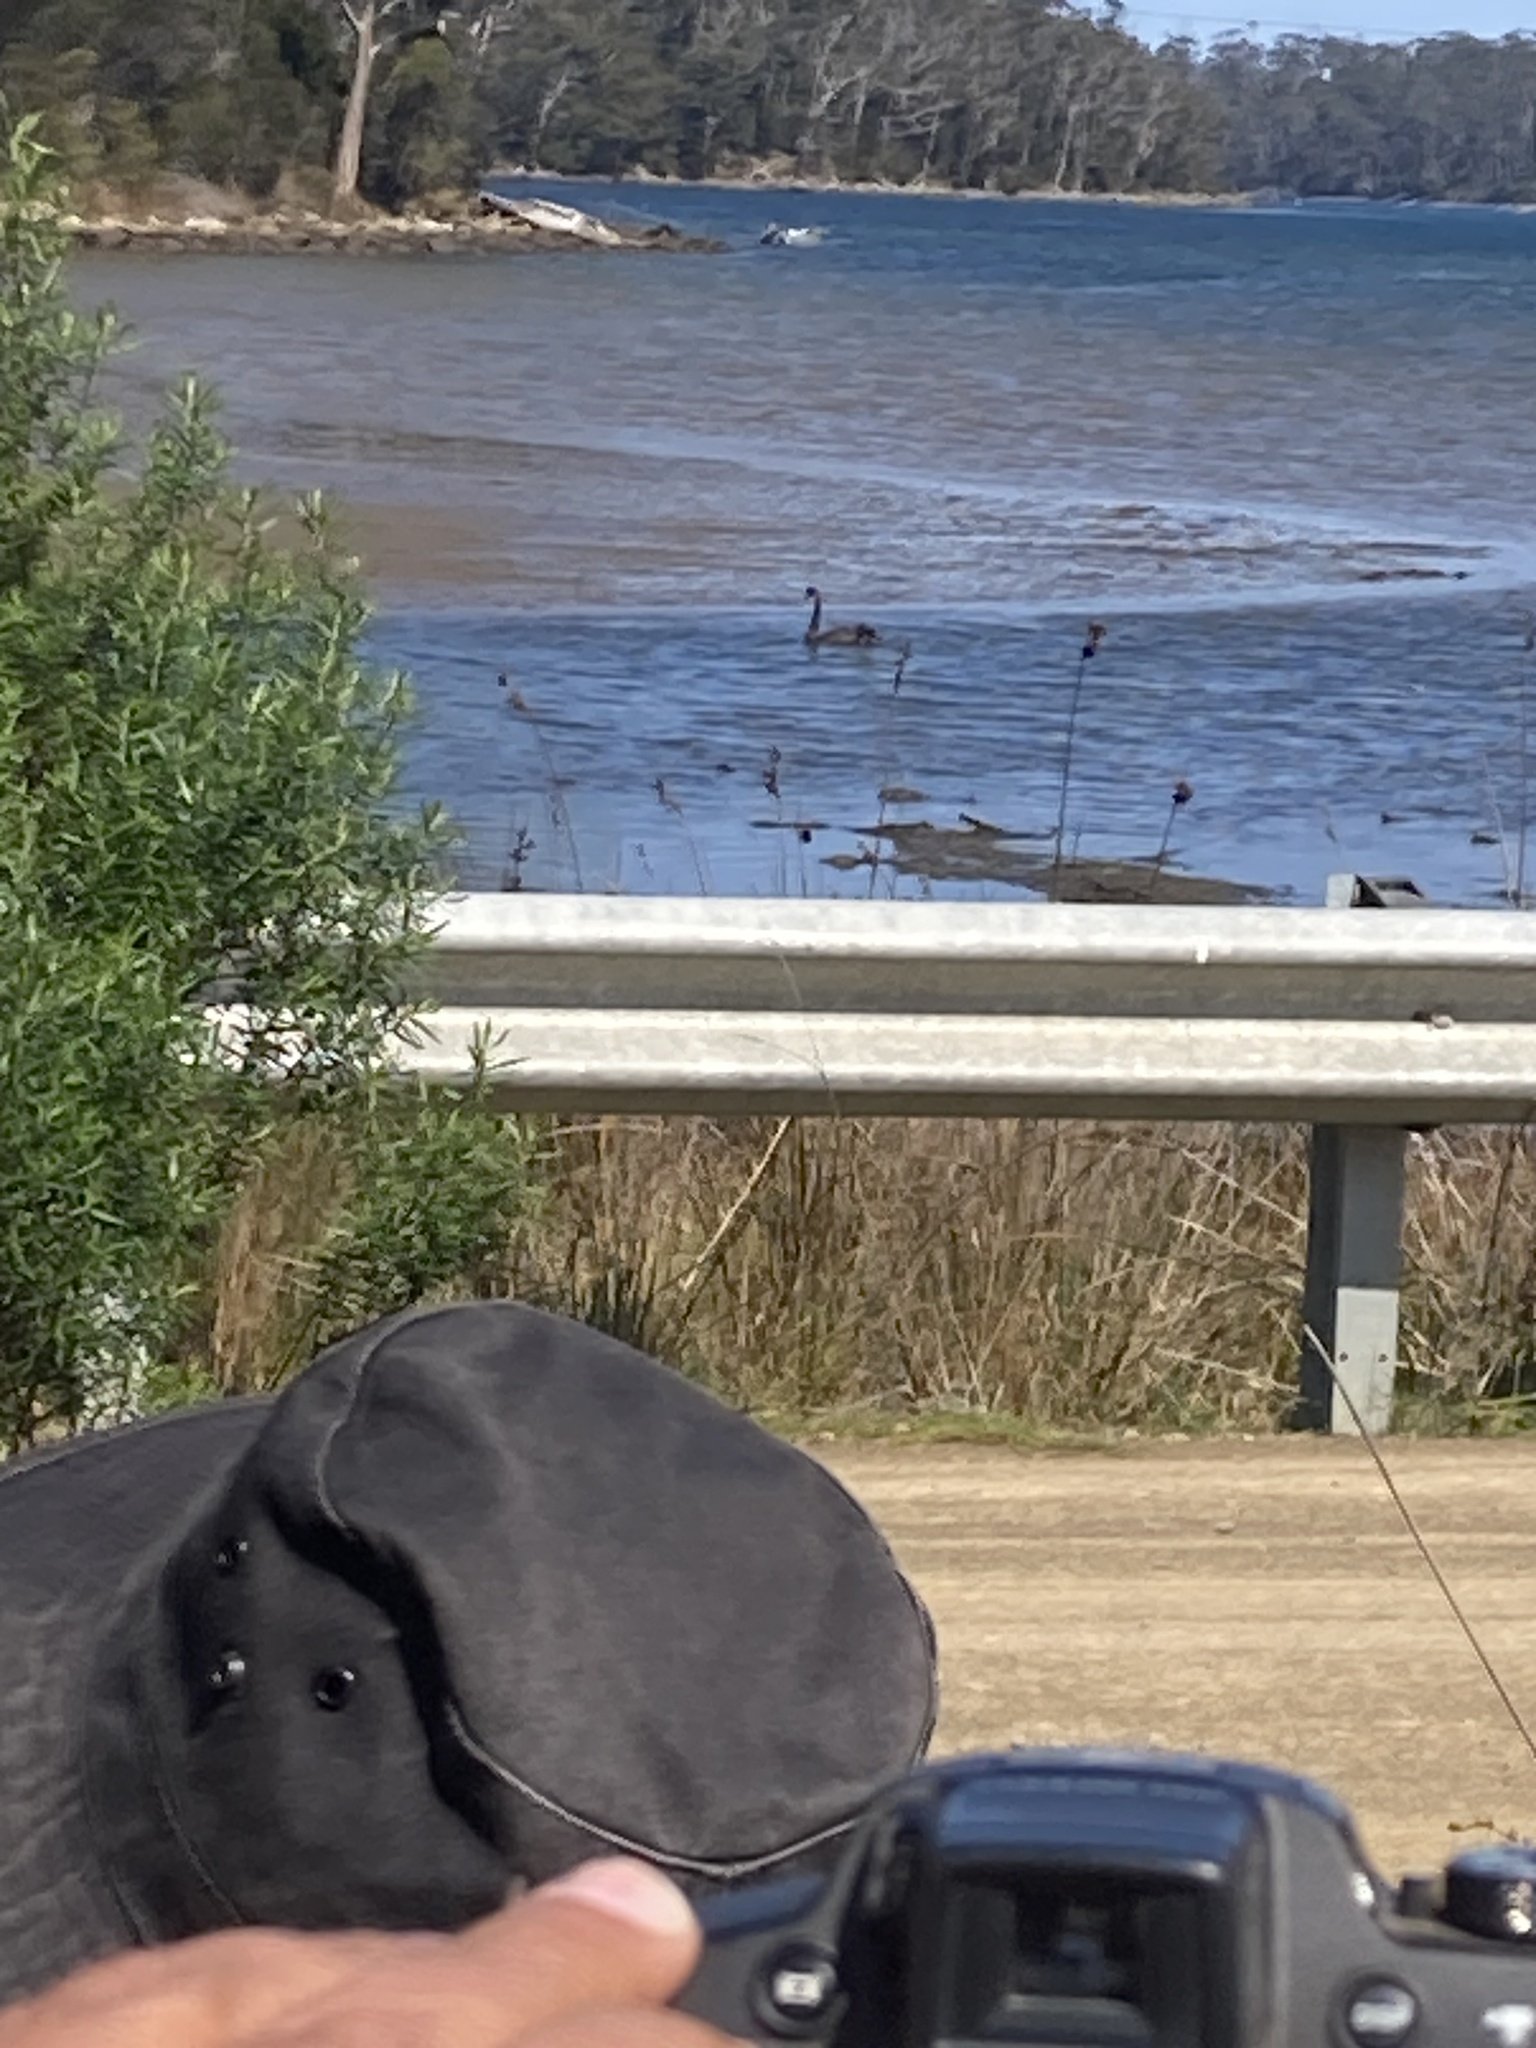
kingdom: Animalia
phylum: Chordata
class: Aves
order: Anseriformes
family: Anatidae
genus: Cygnus
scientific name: Cygnus atratus
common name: Black swan
